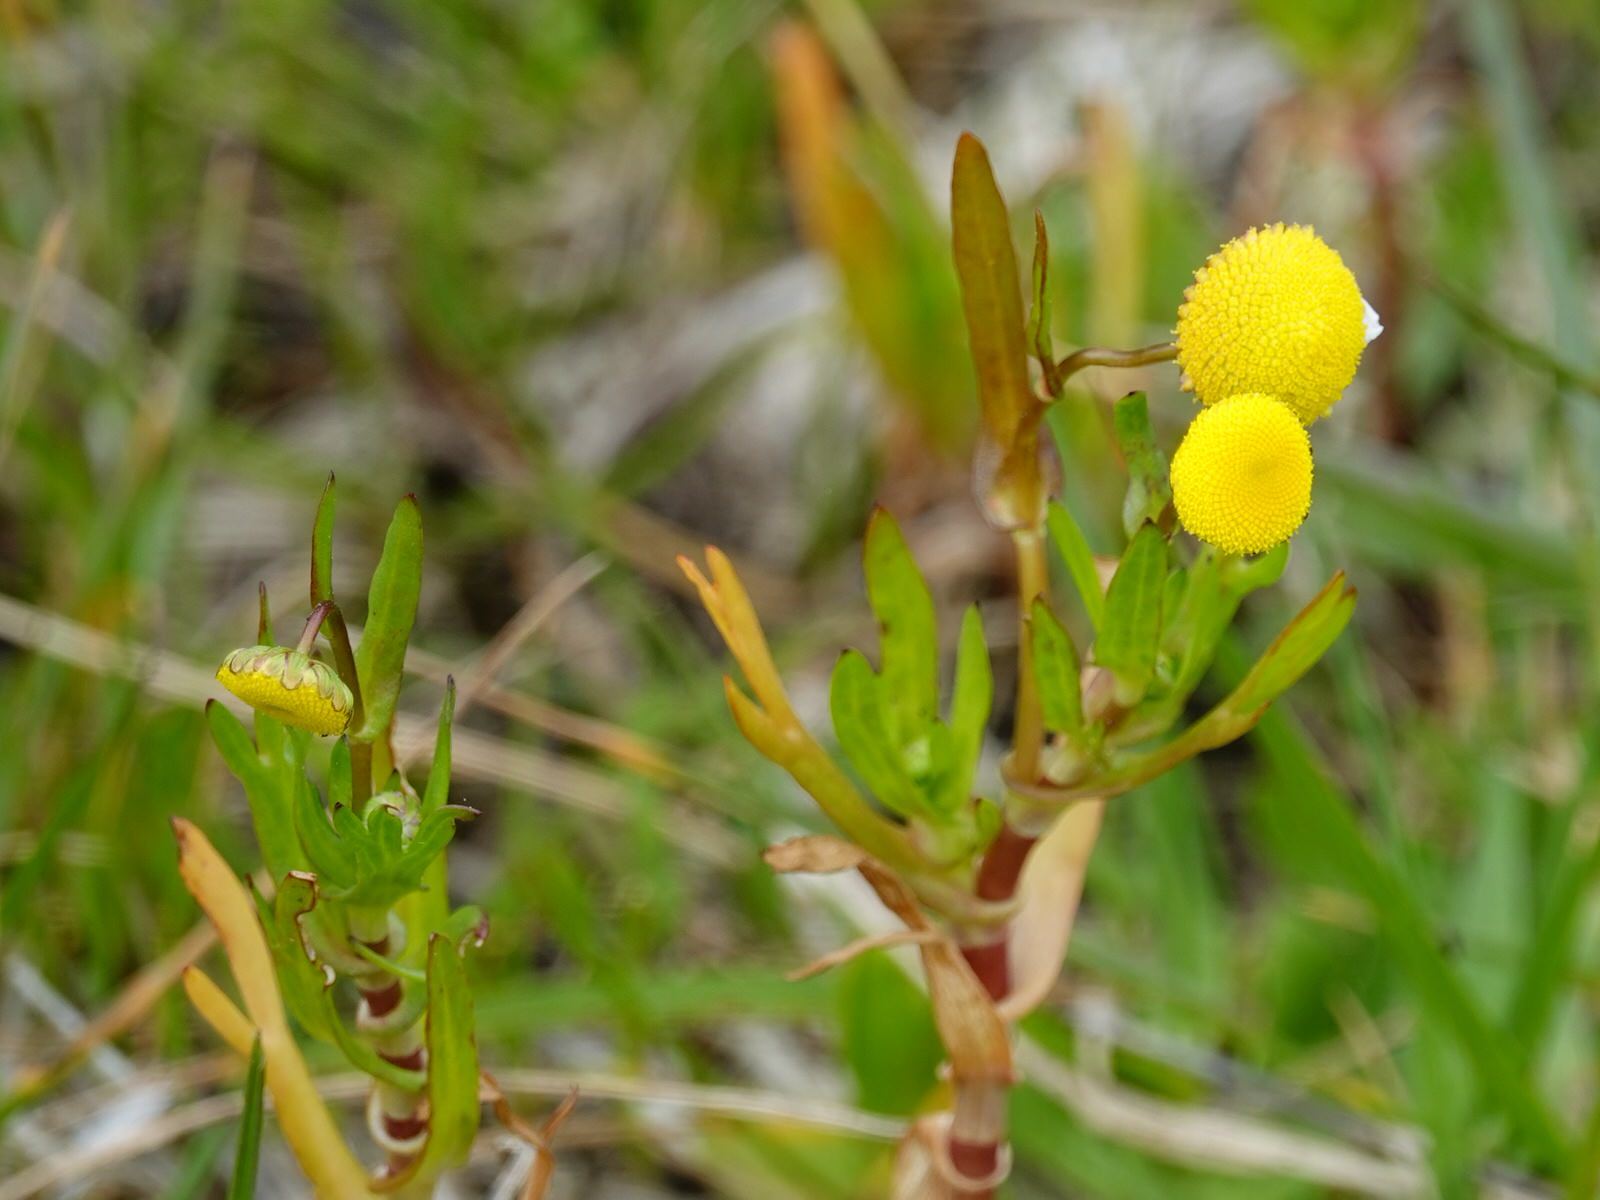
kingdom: Plantae
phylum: Tracheophyta
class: Magnoliopsida
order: Asterales
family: Asteraceae
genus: Cotula
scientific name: Cotula coronopifolia
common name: Buttonweed
